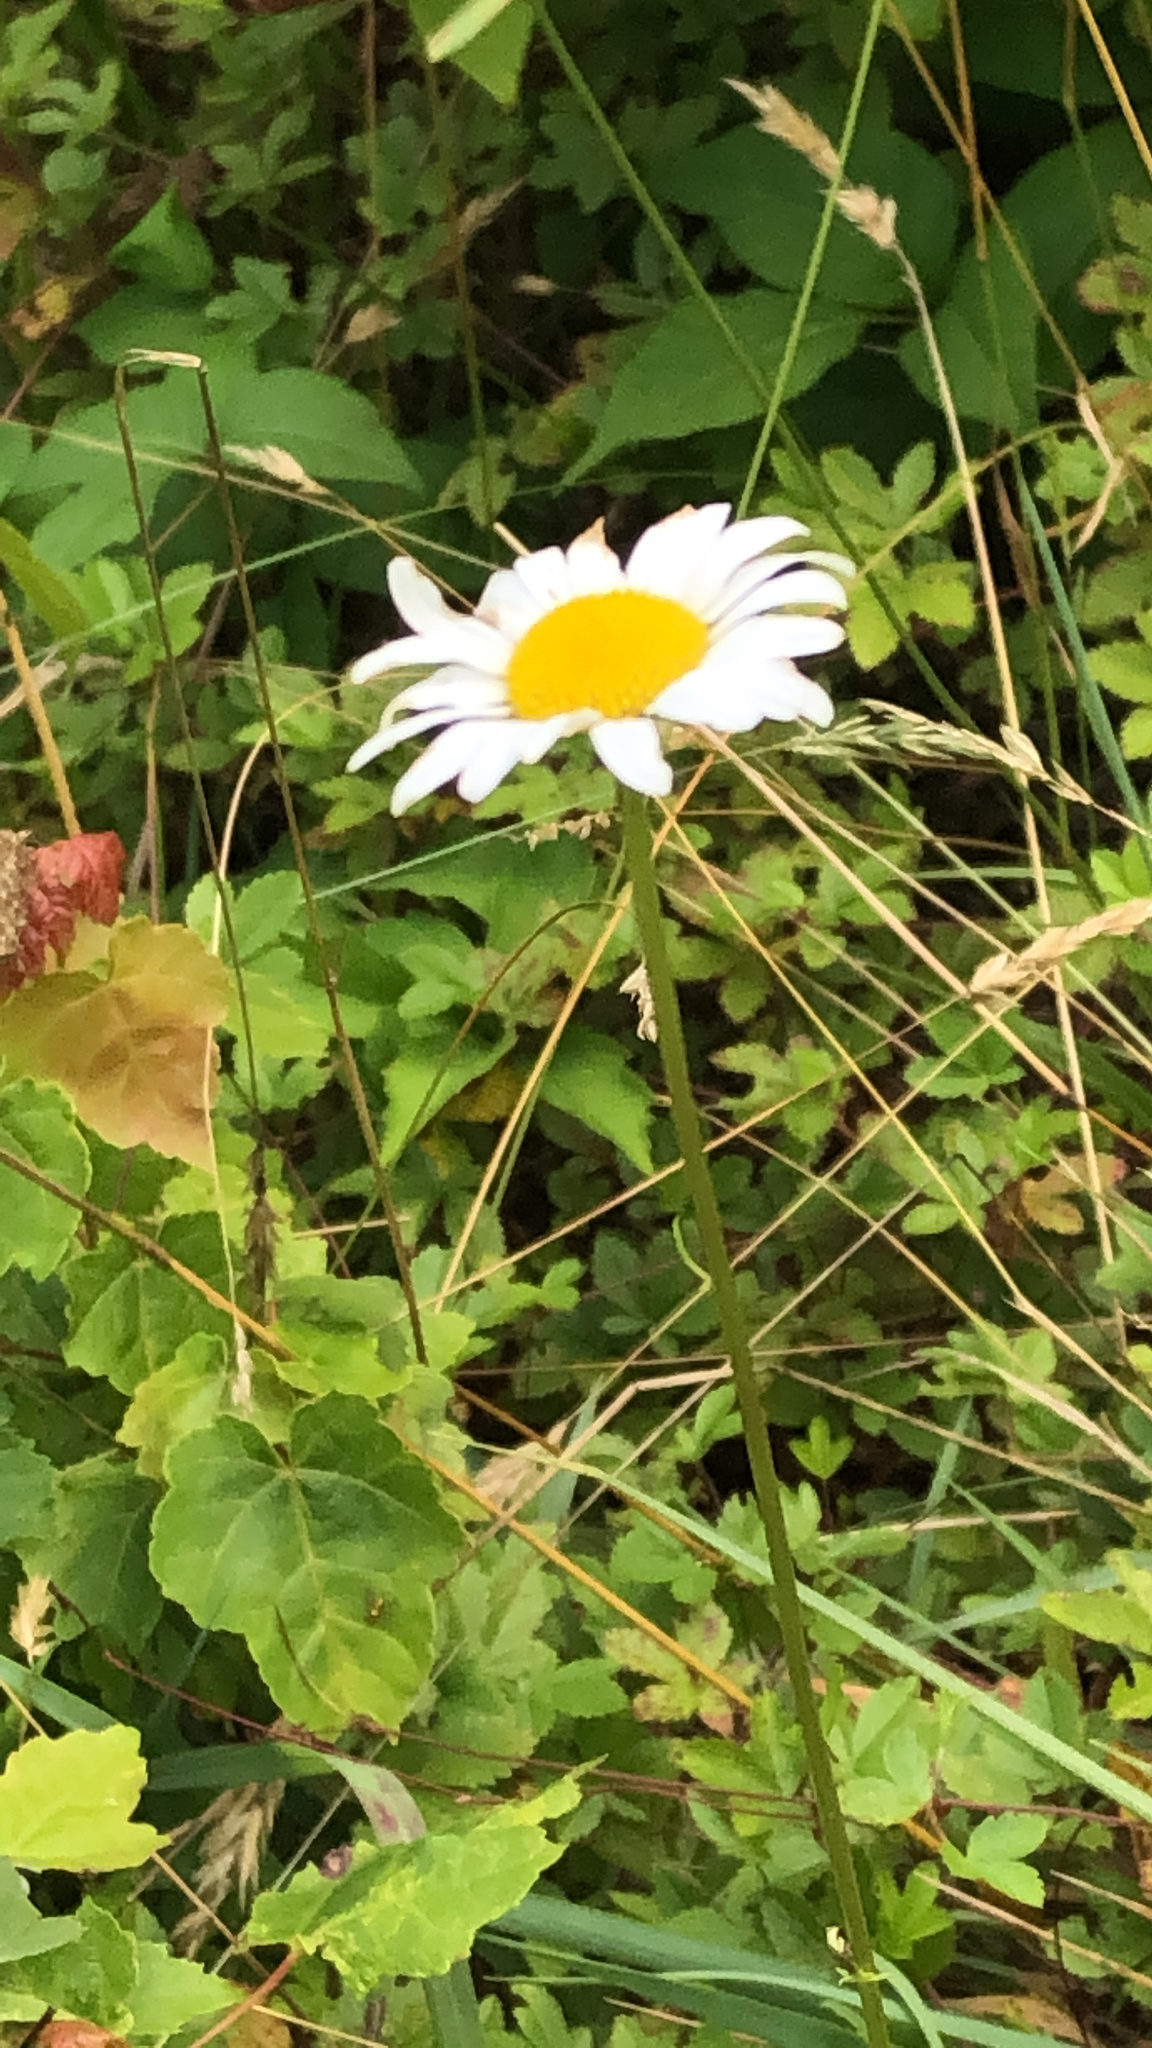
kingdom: Plantae
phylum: Tracheophyta
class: Magnoliopsida
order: Asterales
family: Asteraceae
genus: Leucanthemum
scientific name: Leucanthemum vulgare
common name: Oxeye daisy
